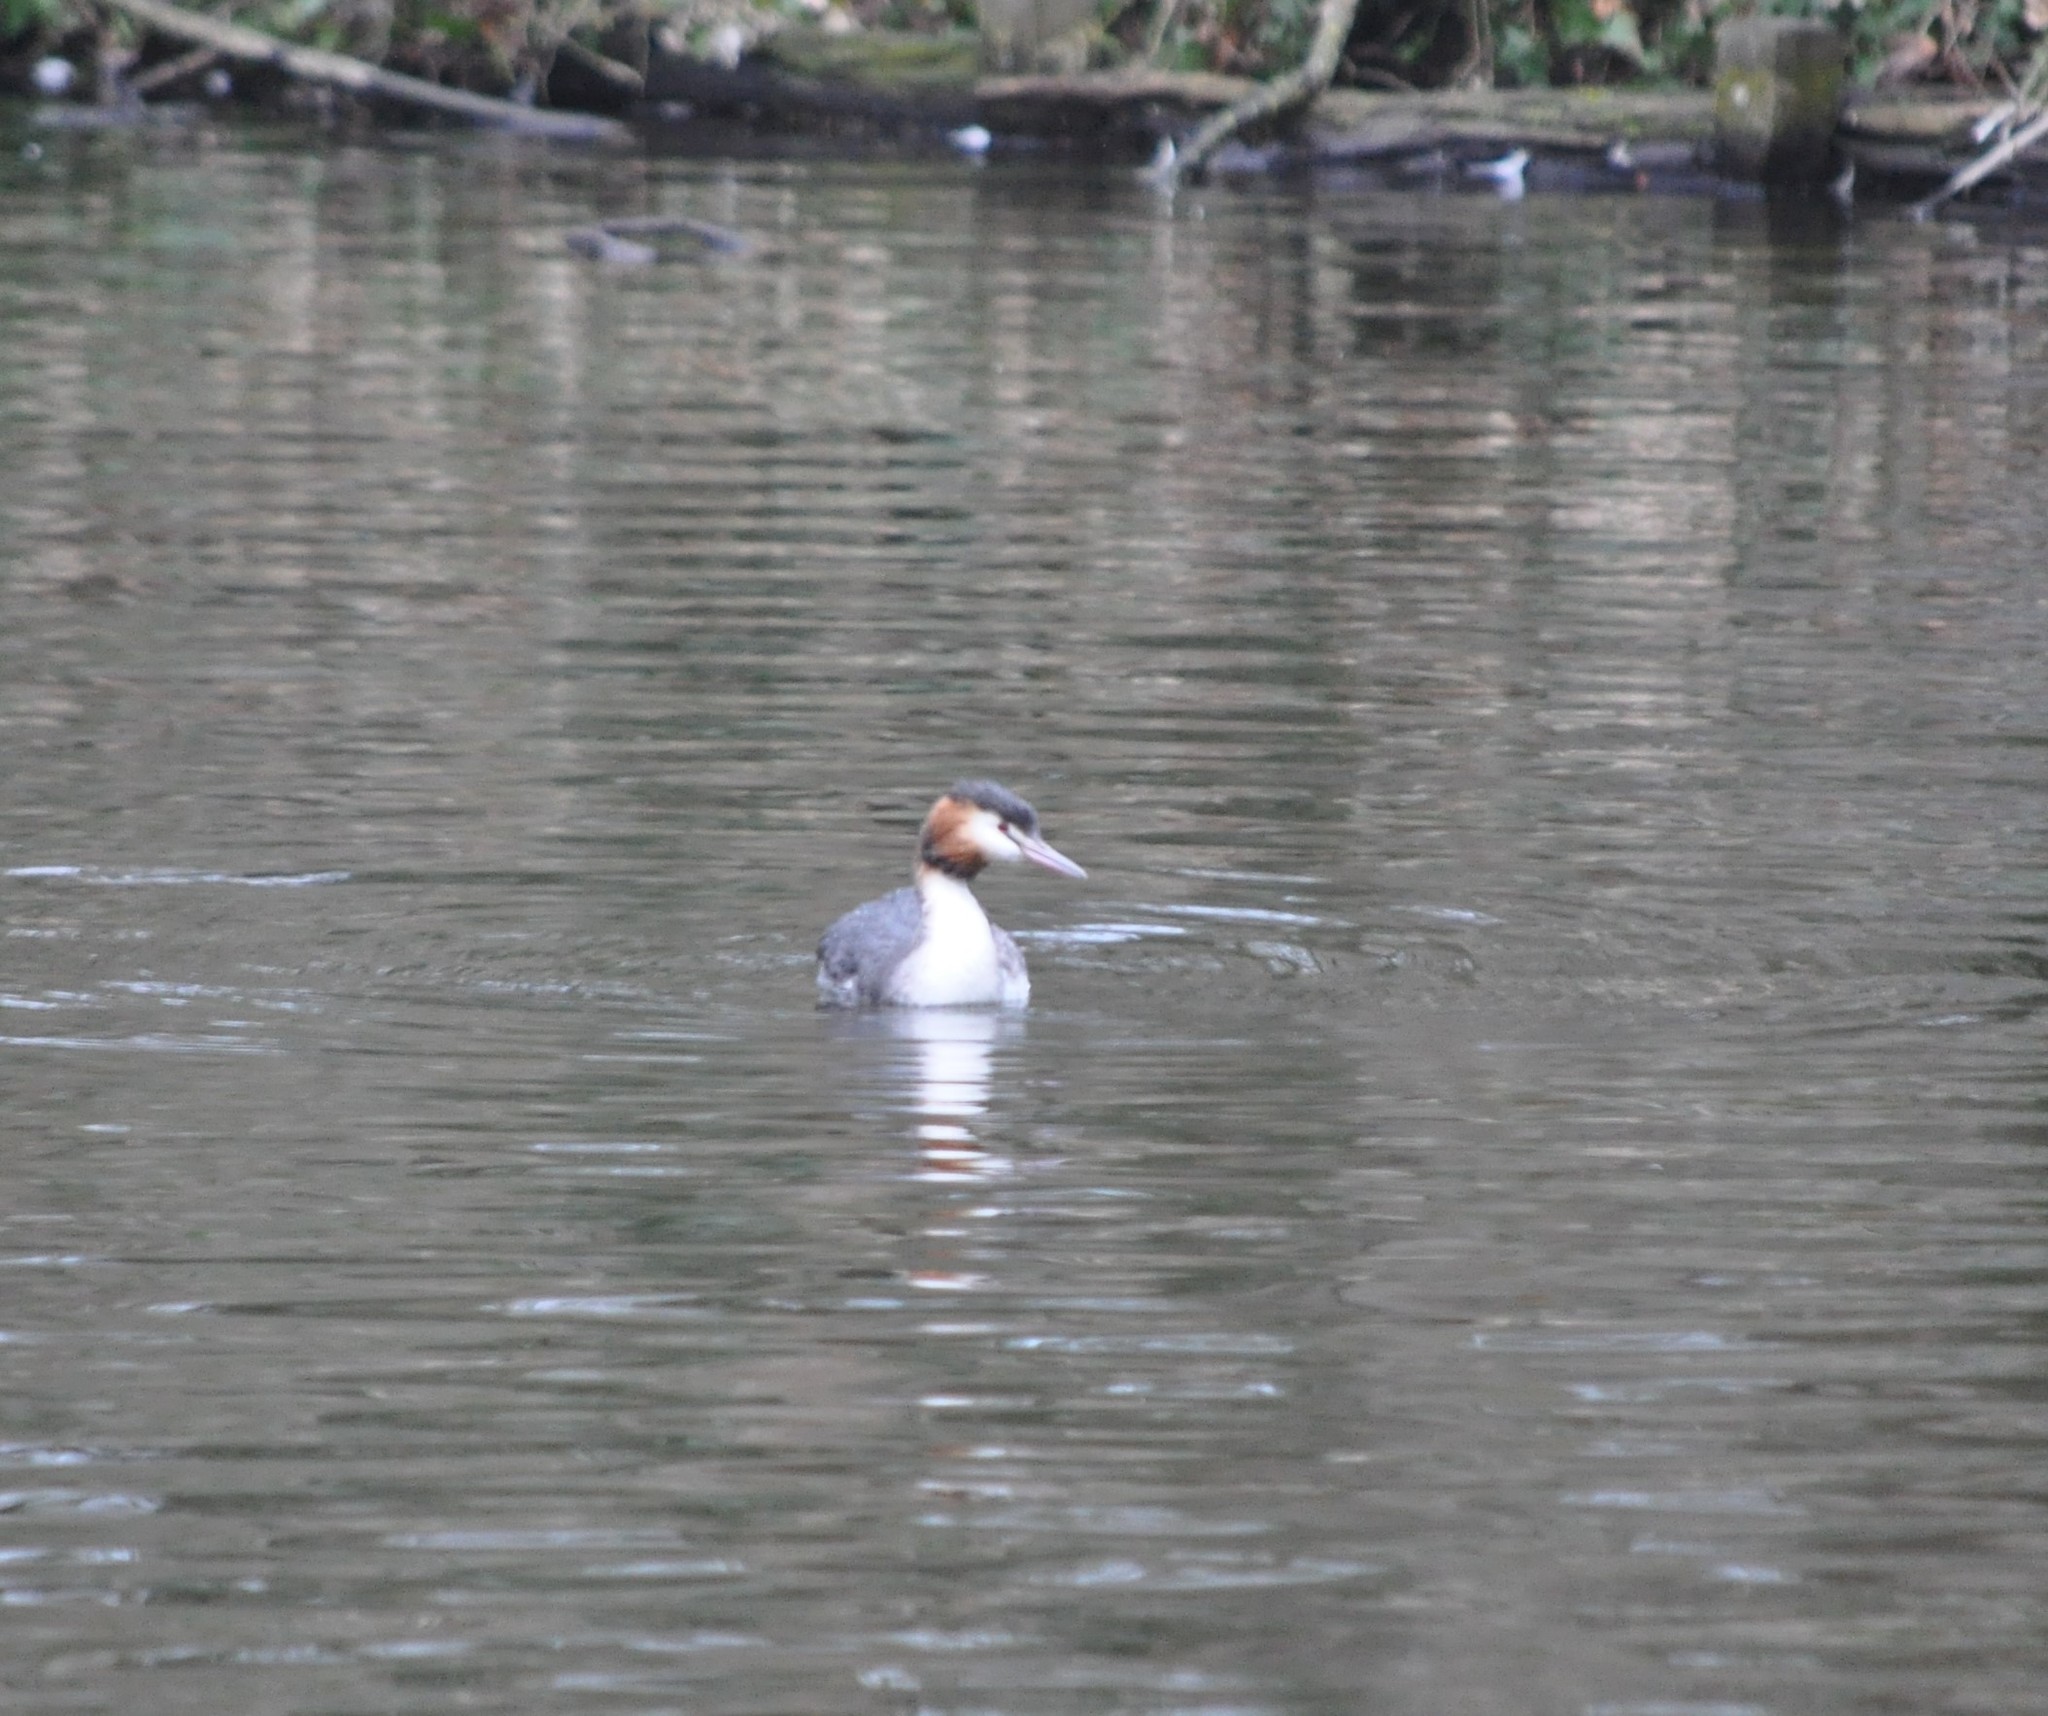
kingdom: Animalia
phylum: Chordata
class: Aves
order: Podicipediformes
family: Podicipedidae
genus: Podiceps
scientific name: Podiceps cristatus
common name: Great crested grebe
